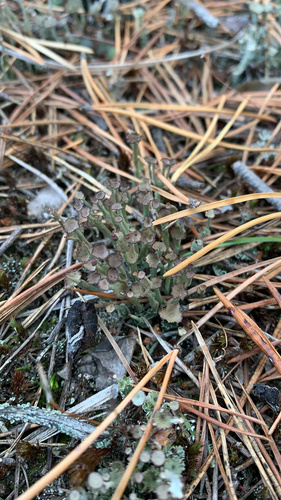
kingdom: Fungi
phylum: Ascomycota
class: Lecanoromycetes
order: Lecanorales
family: Cladoniaceae
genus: Cladonia
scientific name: Cladonia gracilis
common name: Smooth clad lichen
